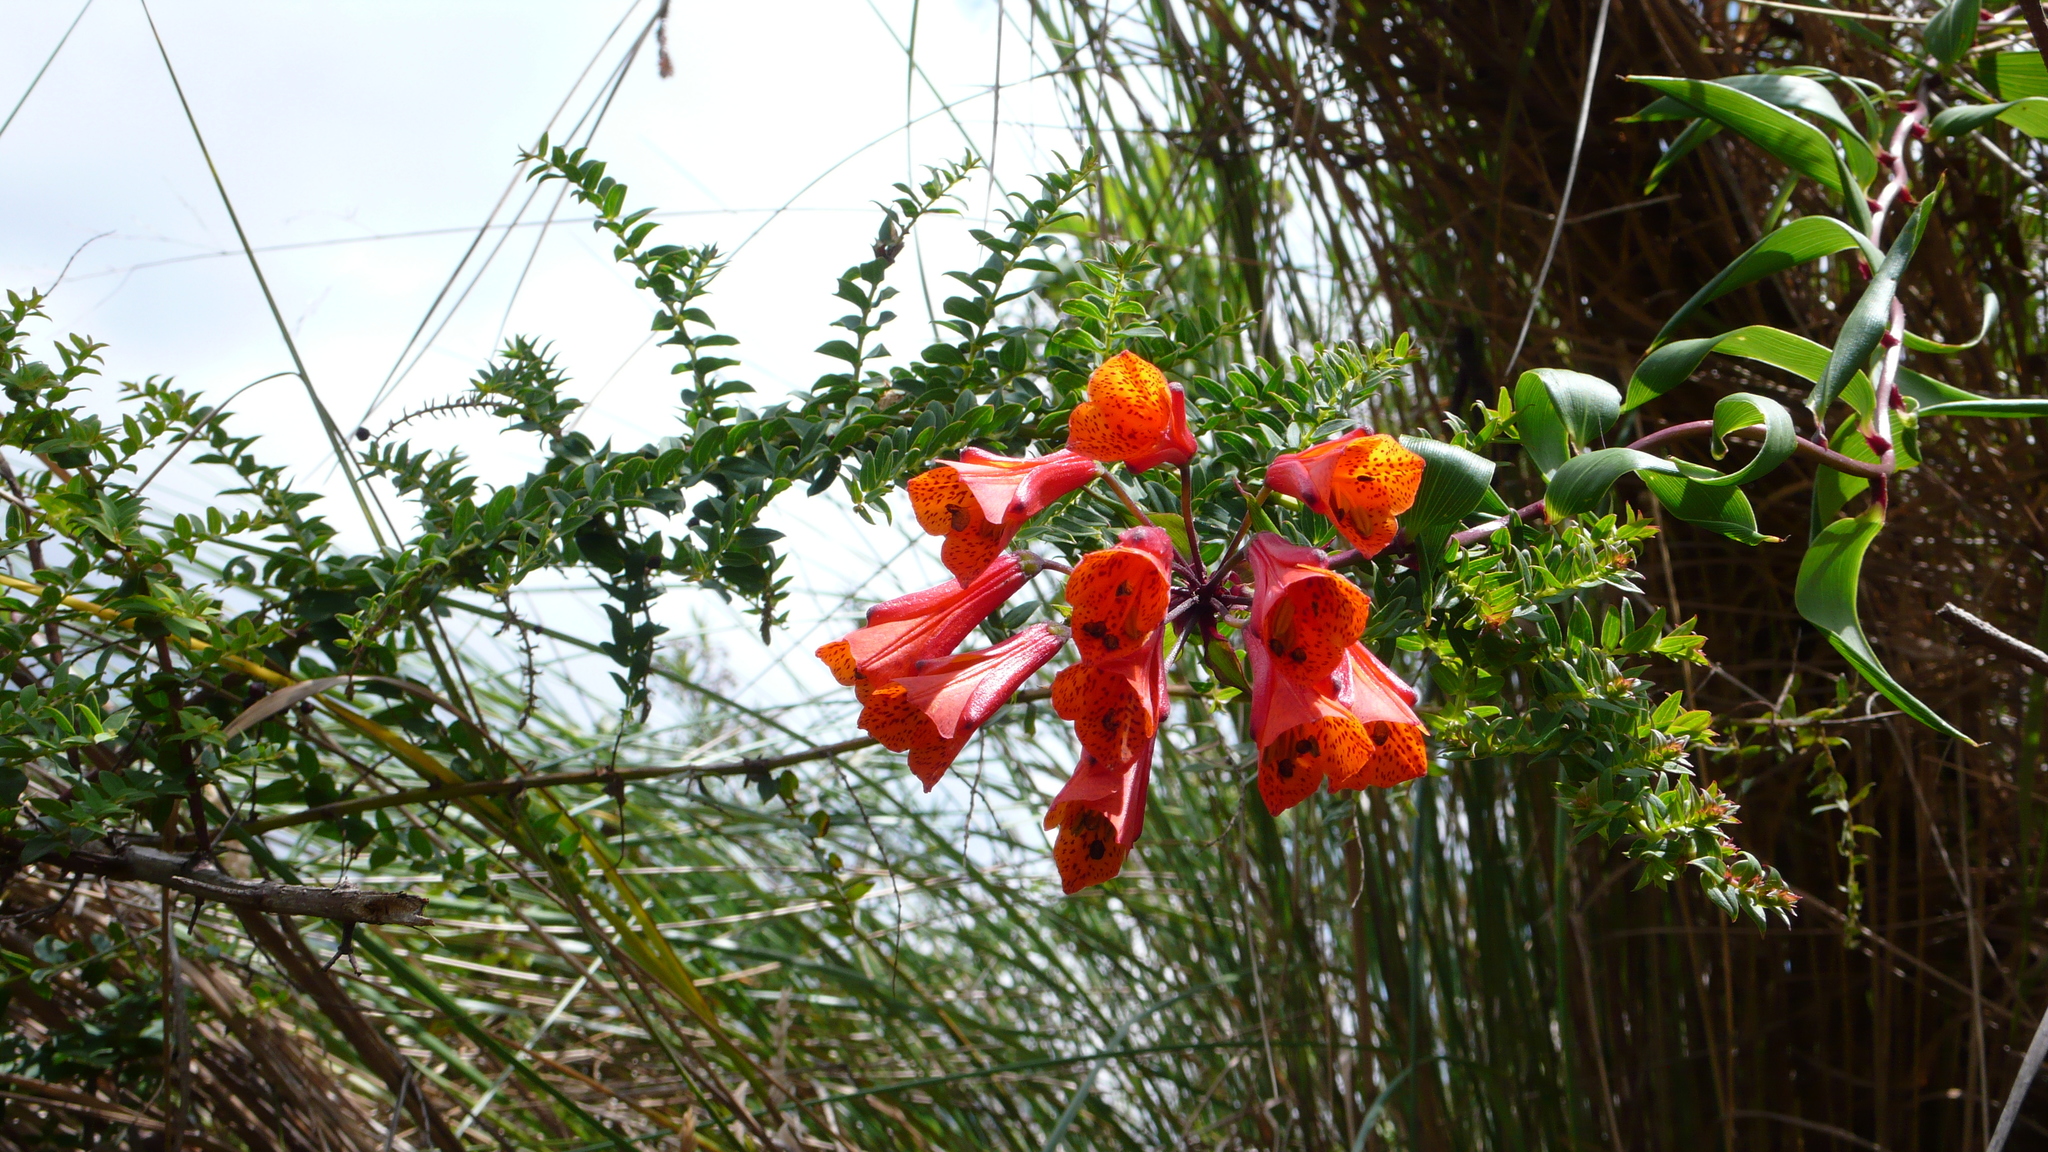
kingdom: Plantae
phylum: Tracheophyta
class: Liliopsida
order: Liliales
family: Alstroemeriaceae
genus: Bomarea
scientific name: Bomarea multiflora
